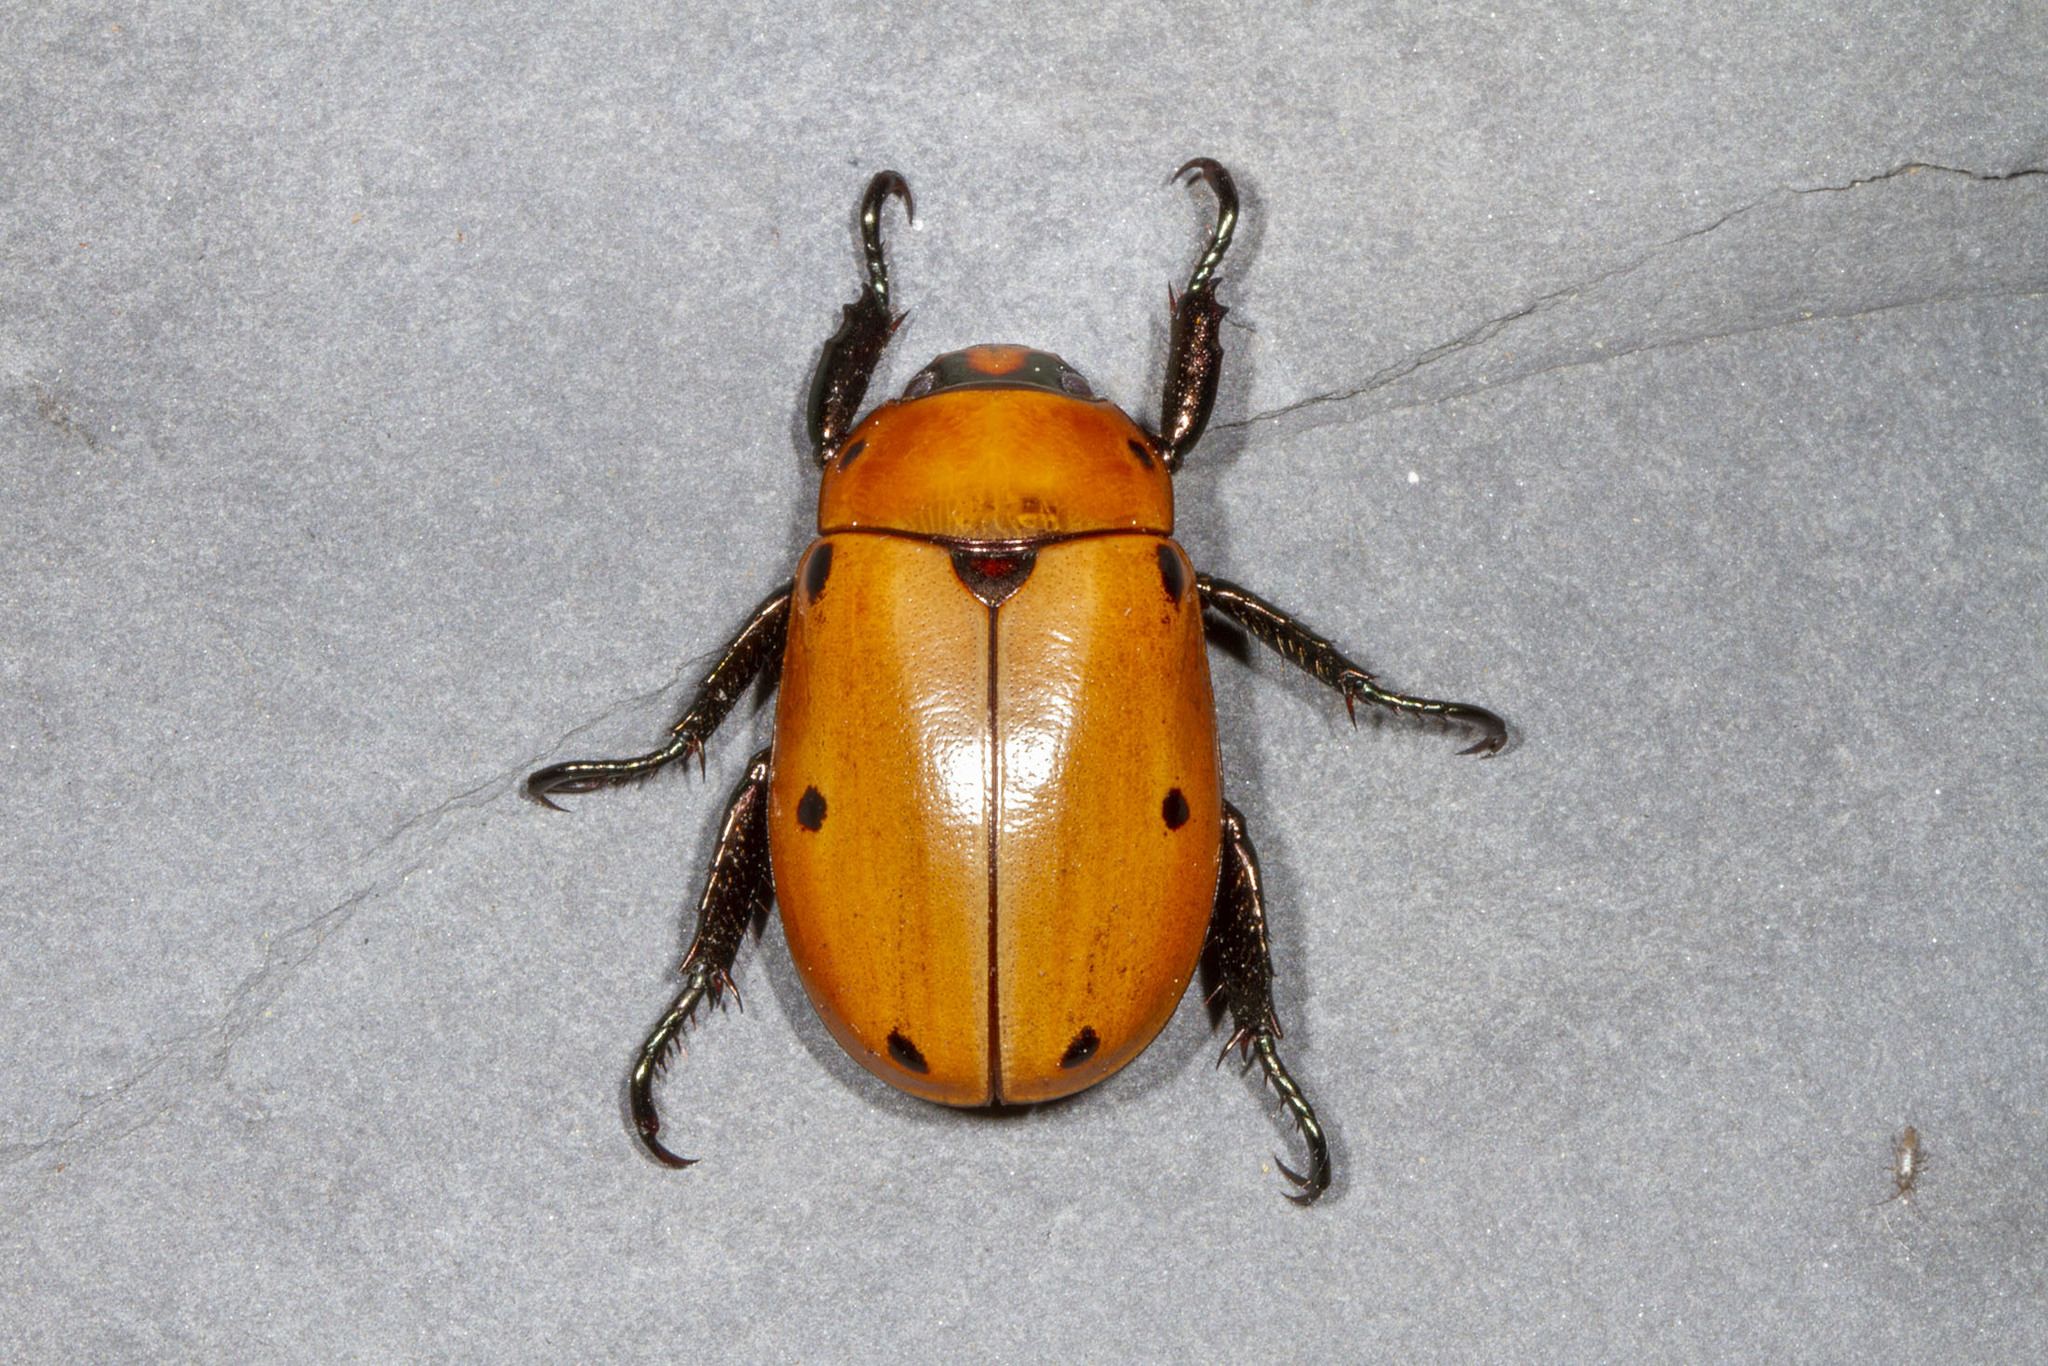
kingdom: Animalia
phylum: Arthropoda
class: Insecta
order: Coleoptera
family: Scarabaeidae
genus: Pelidnota
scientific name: Pelidnota punctata
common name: Grapevine beetle
